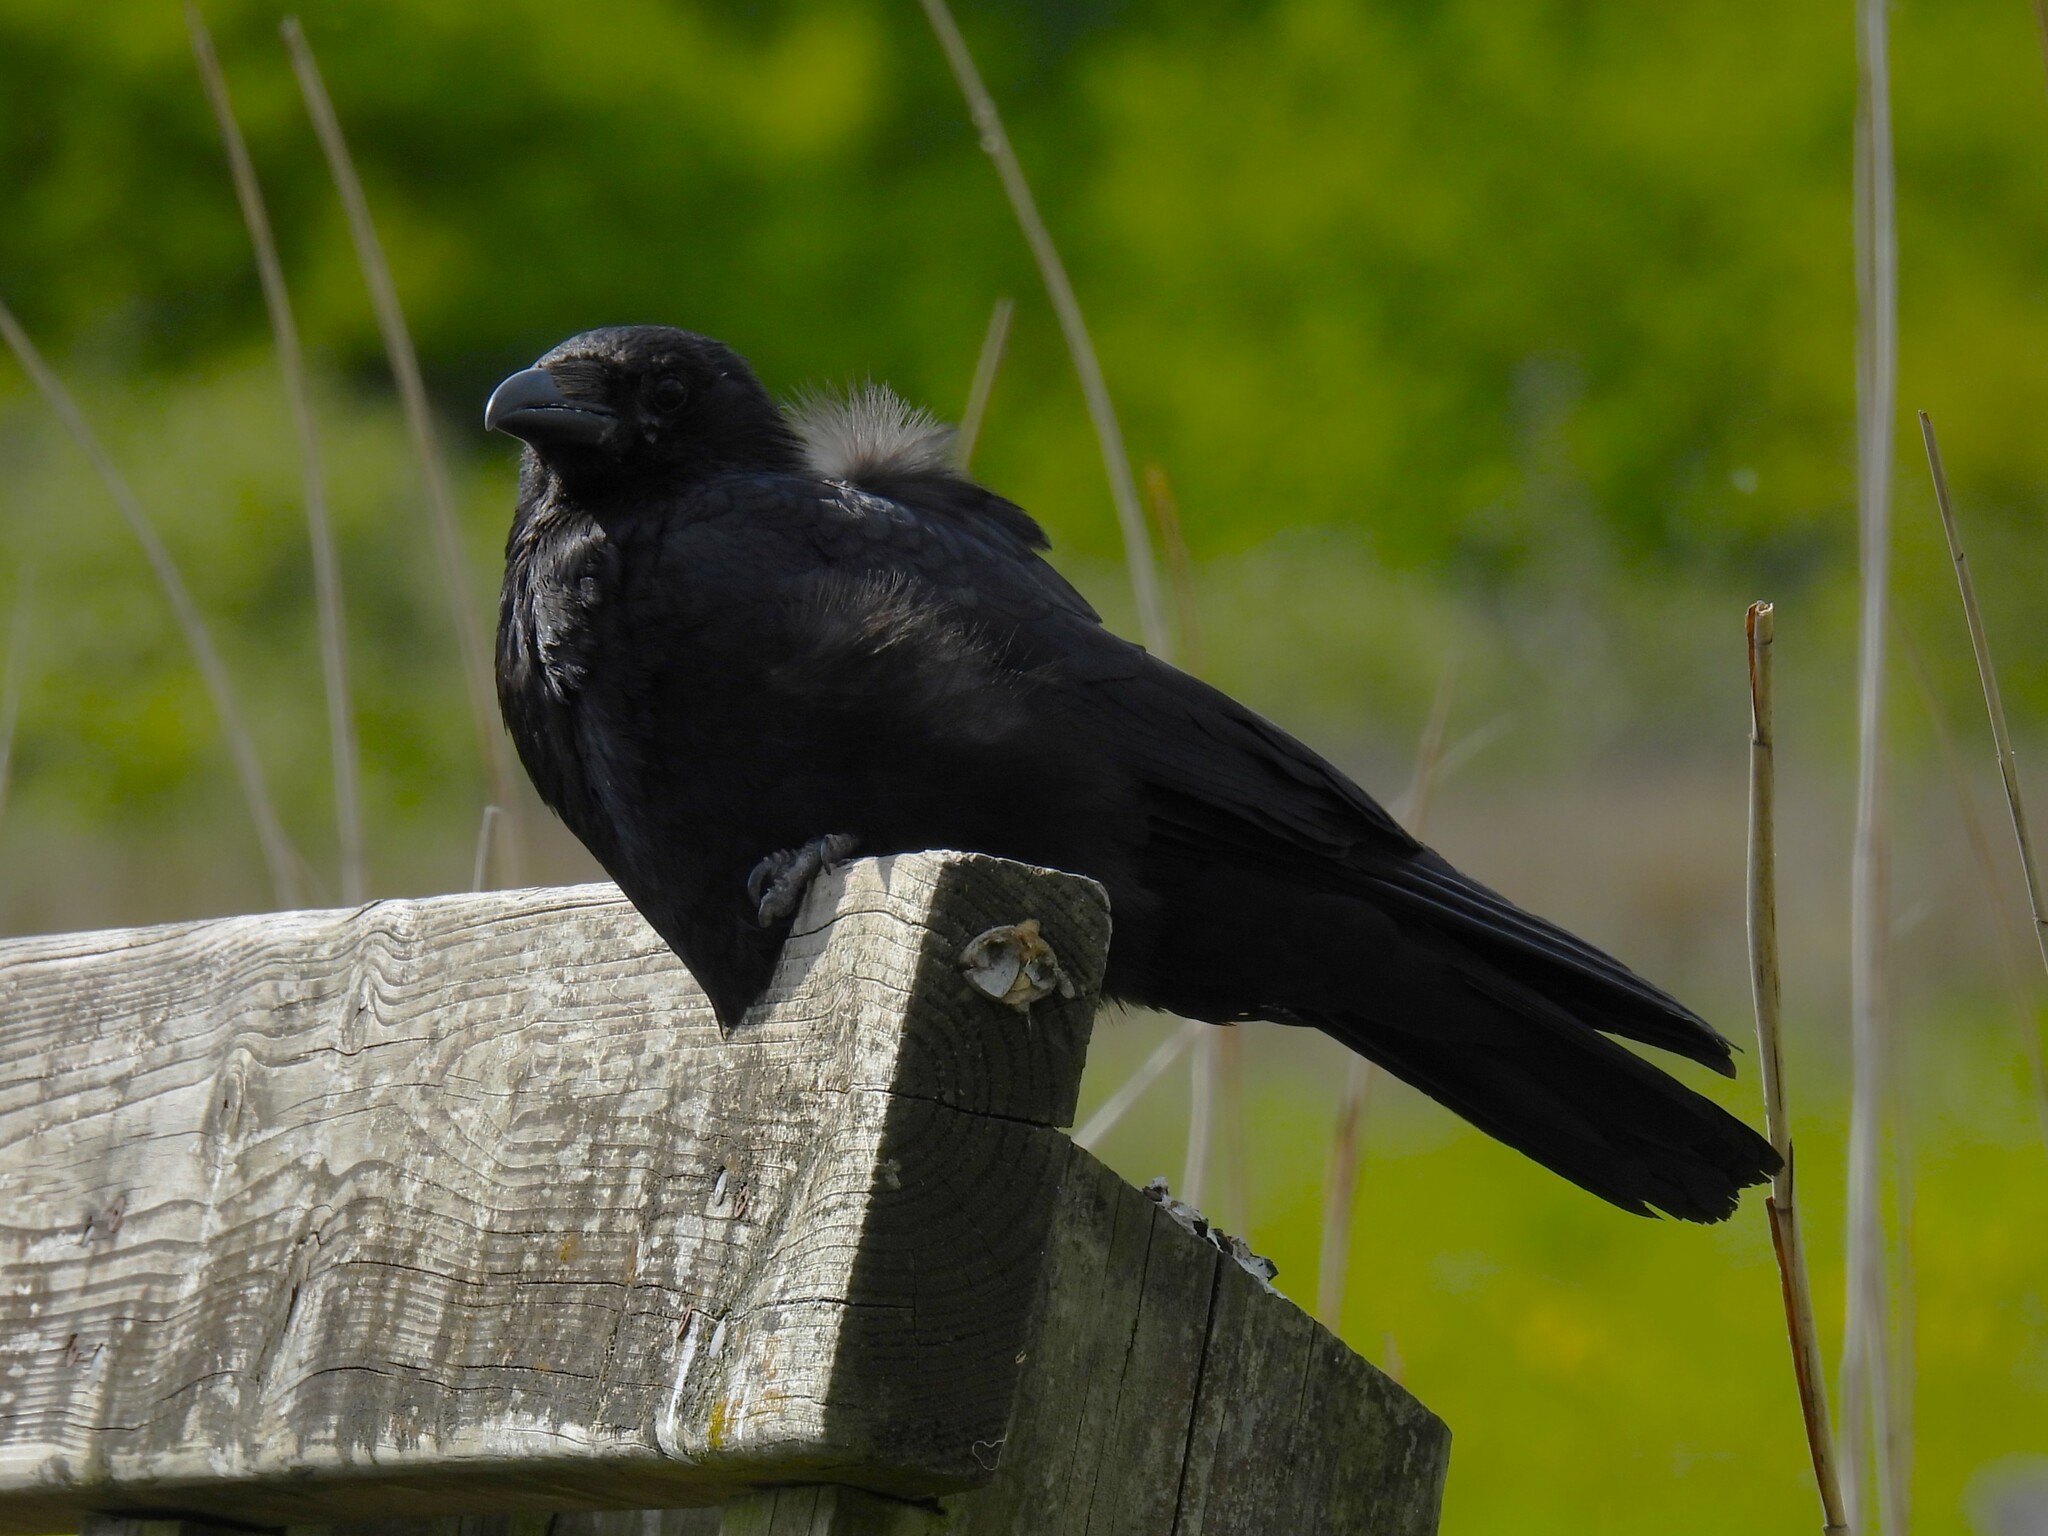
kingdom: Animalia
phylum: Chordata
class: Aves
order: Passeriformes
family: Corvidae
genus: Corvus
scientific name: Corvus corone
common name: Carrion crow
